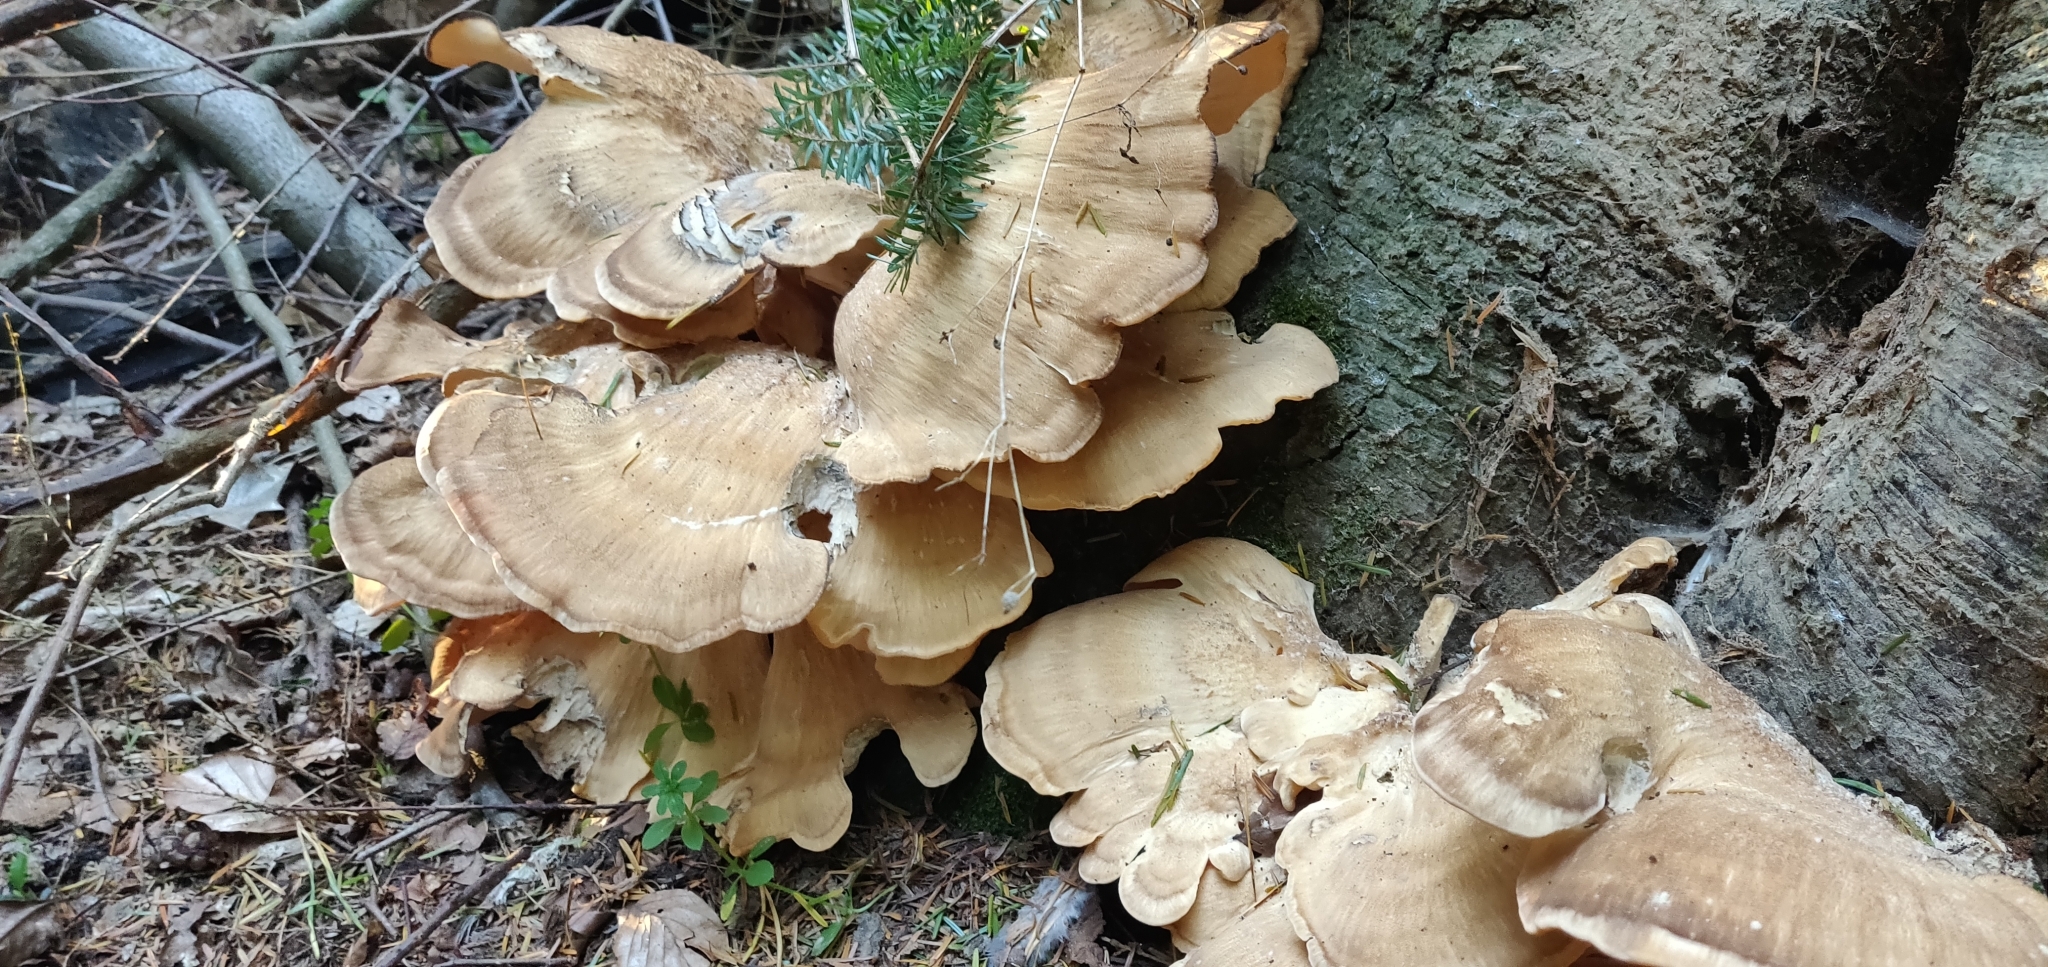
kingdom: Fungi
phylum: Basidiomycota
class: Agaricomycetes
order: Polyporales
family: Meripilaceae
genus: Meripilus
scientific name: Meripilus giganteus
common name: Giant polypore
